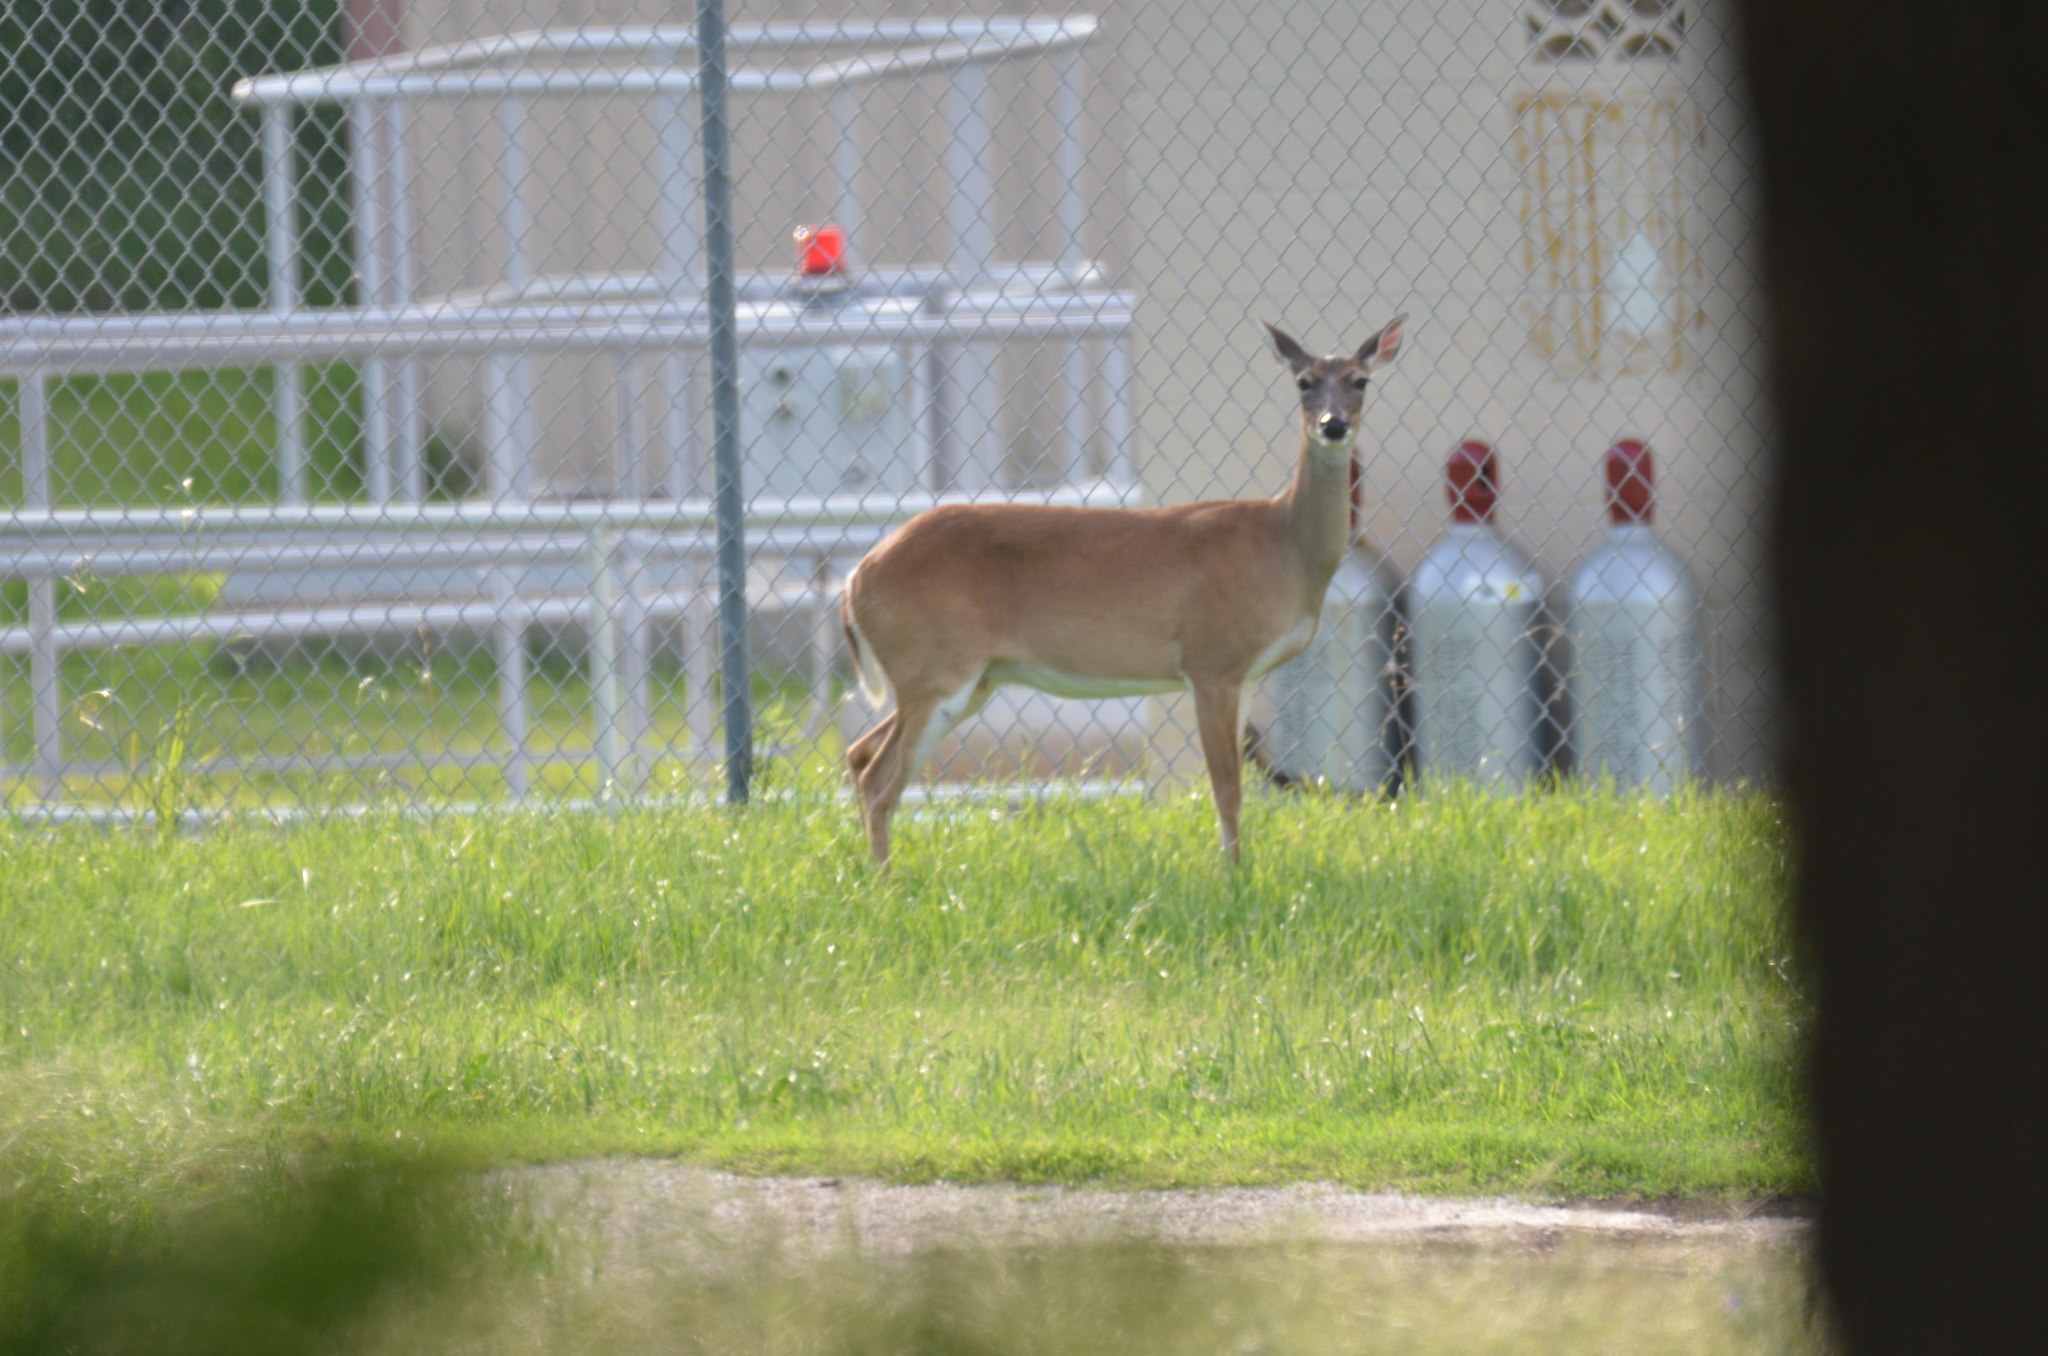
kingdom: Animalia
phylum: Chordata
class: Mammalia
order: Artiodactyla
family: Cervidae
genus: Odocoileus
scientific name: Odocoileus virginianus
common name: White-tailed deer
